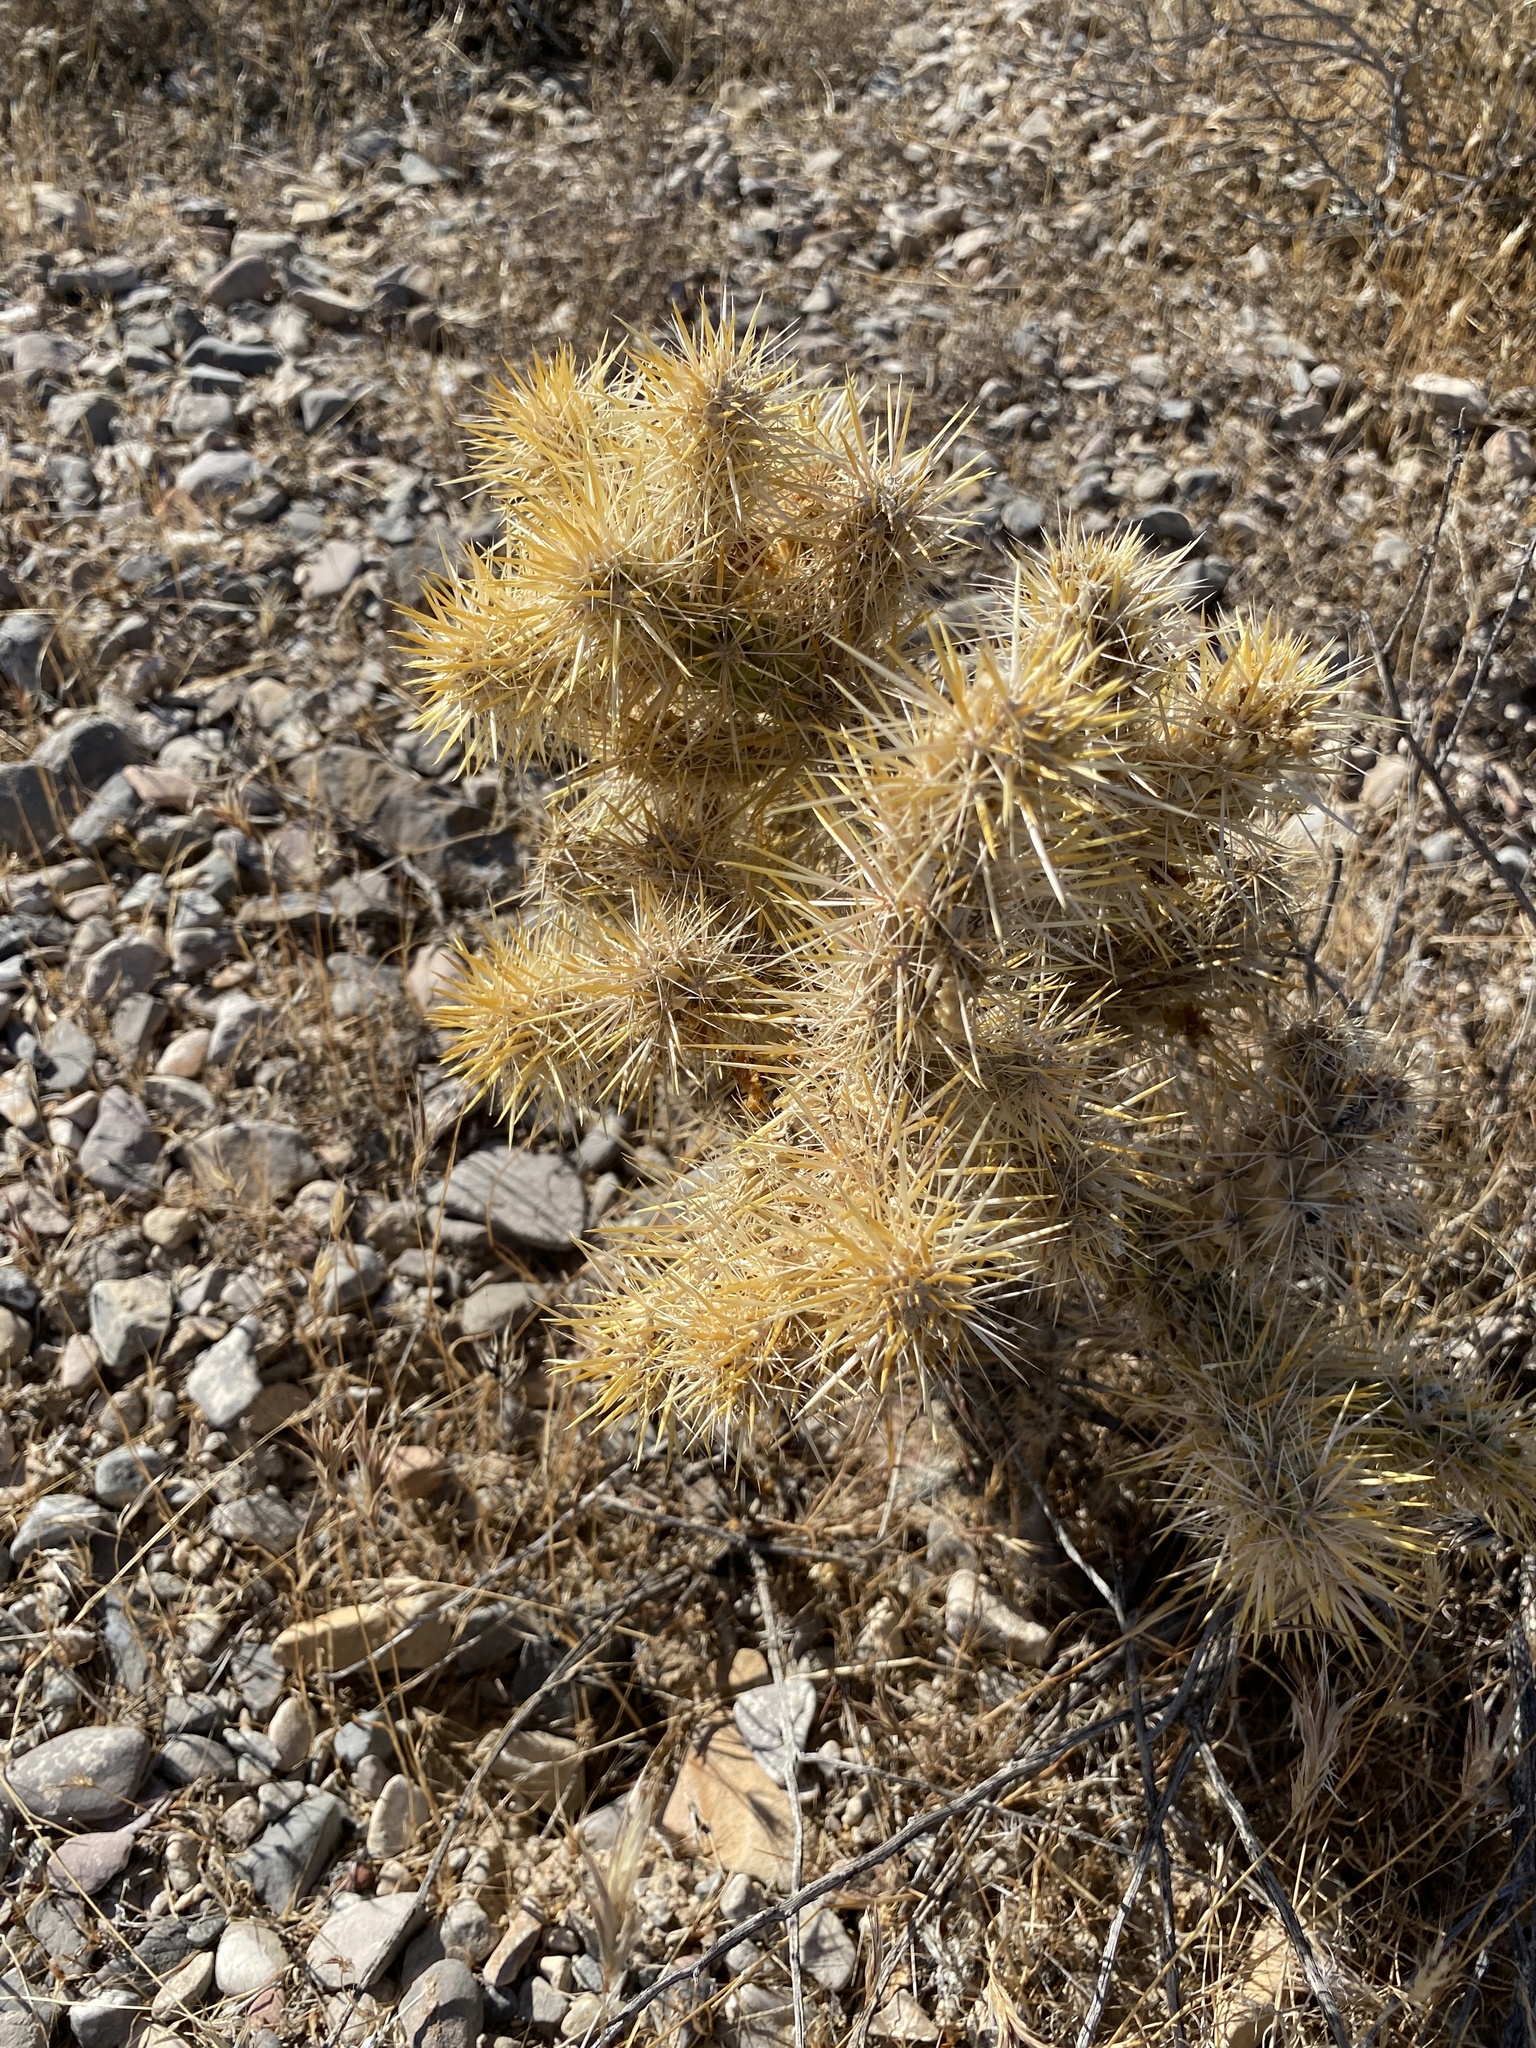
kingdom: Plantae
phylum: Tracheophyta
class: Magnoliopsida
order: Caryophyllales
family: Cactaceae
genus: Cylindropuntia
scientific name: Cylindropuntia echinocarpa
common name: Ground cholla
